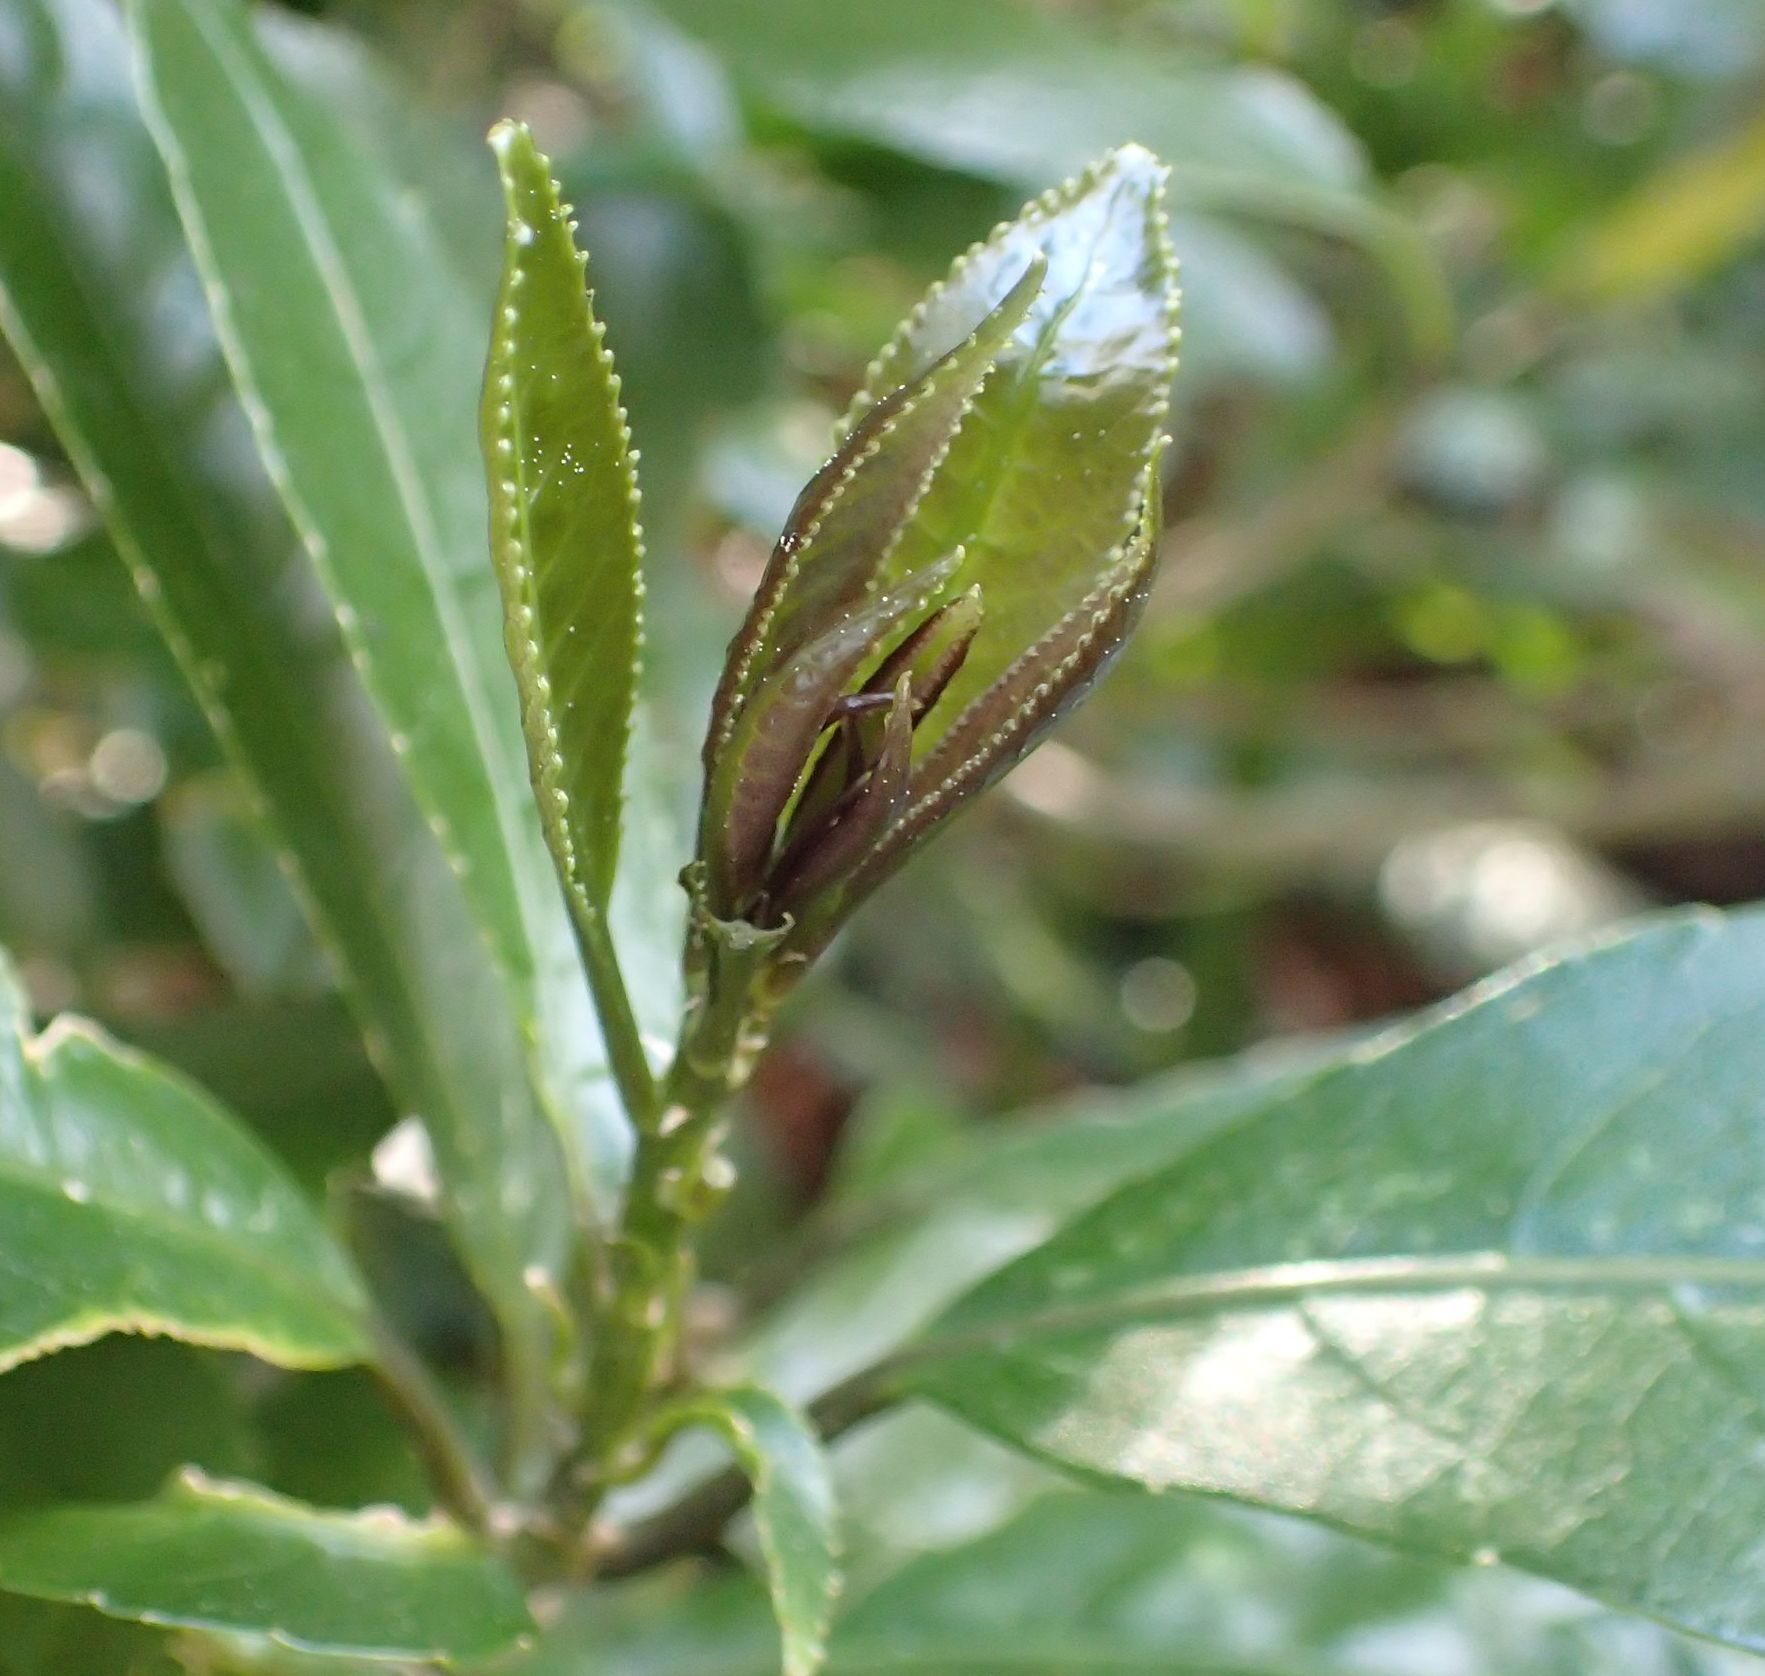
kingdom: Plantae
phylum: Tracheophyta
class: Magnoliopsida
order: Malpighiales
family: Violaceae
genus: Melicytus
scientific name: Melicytus ramiflorus
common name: Mahoe
